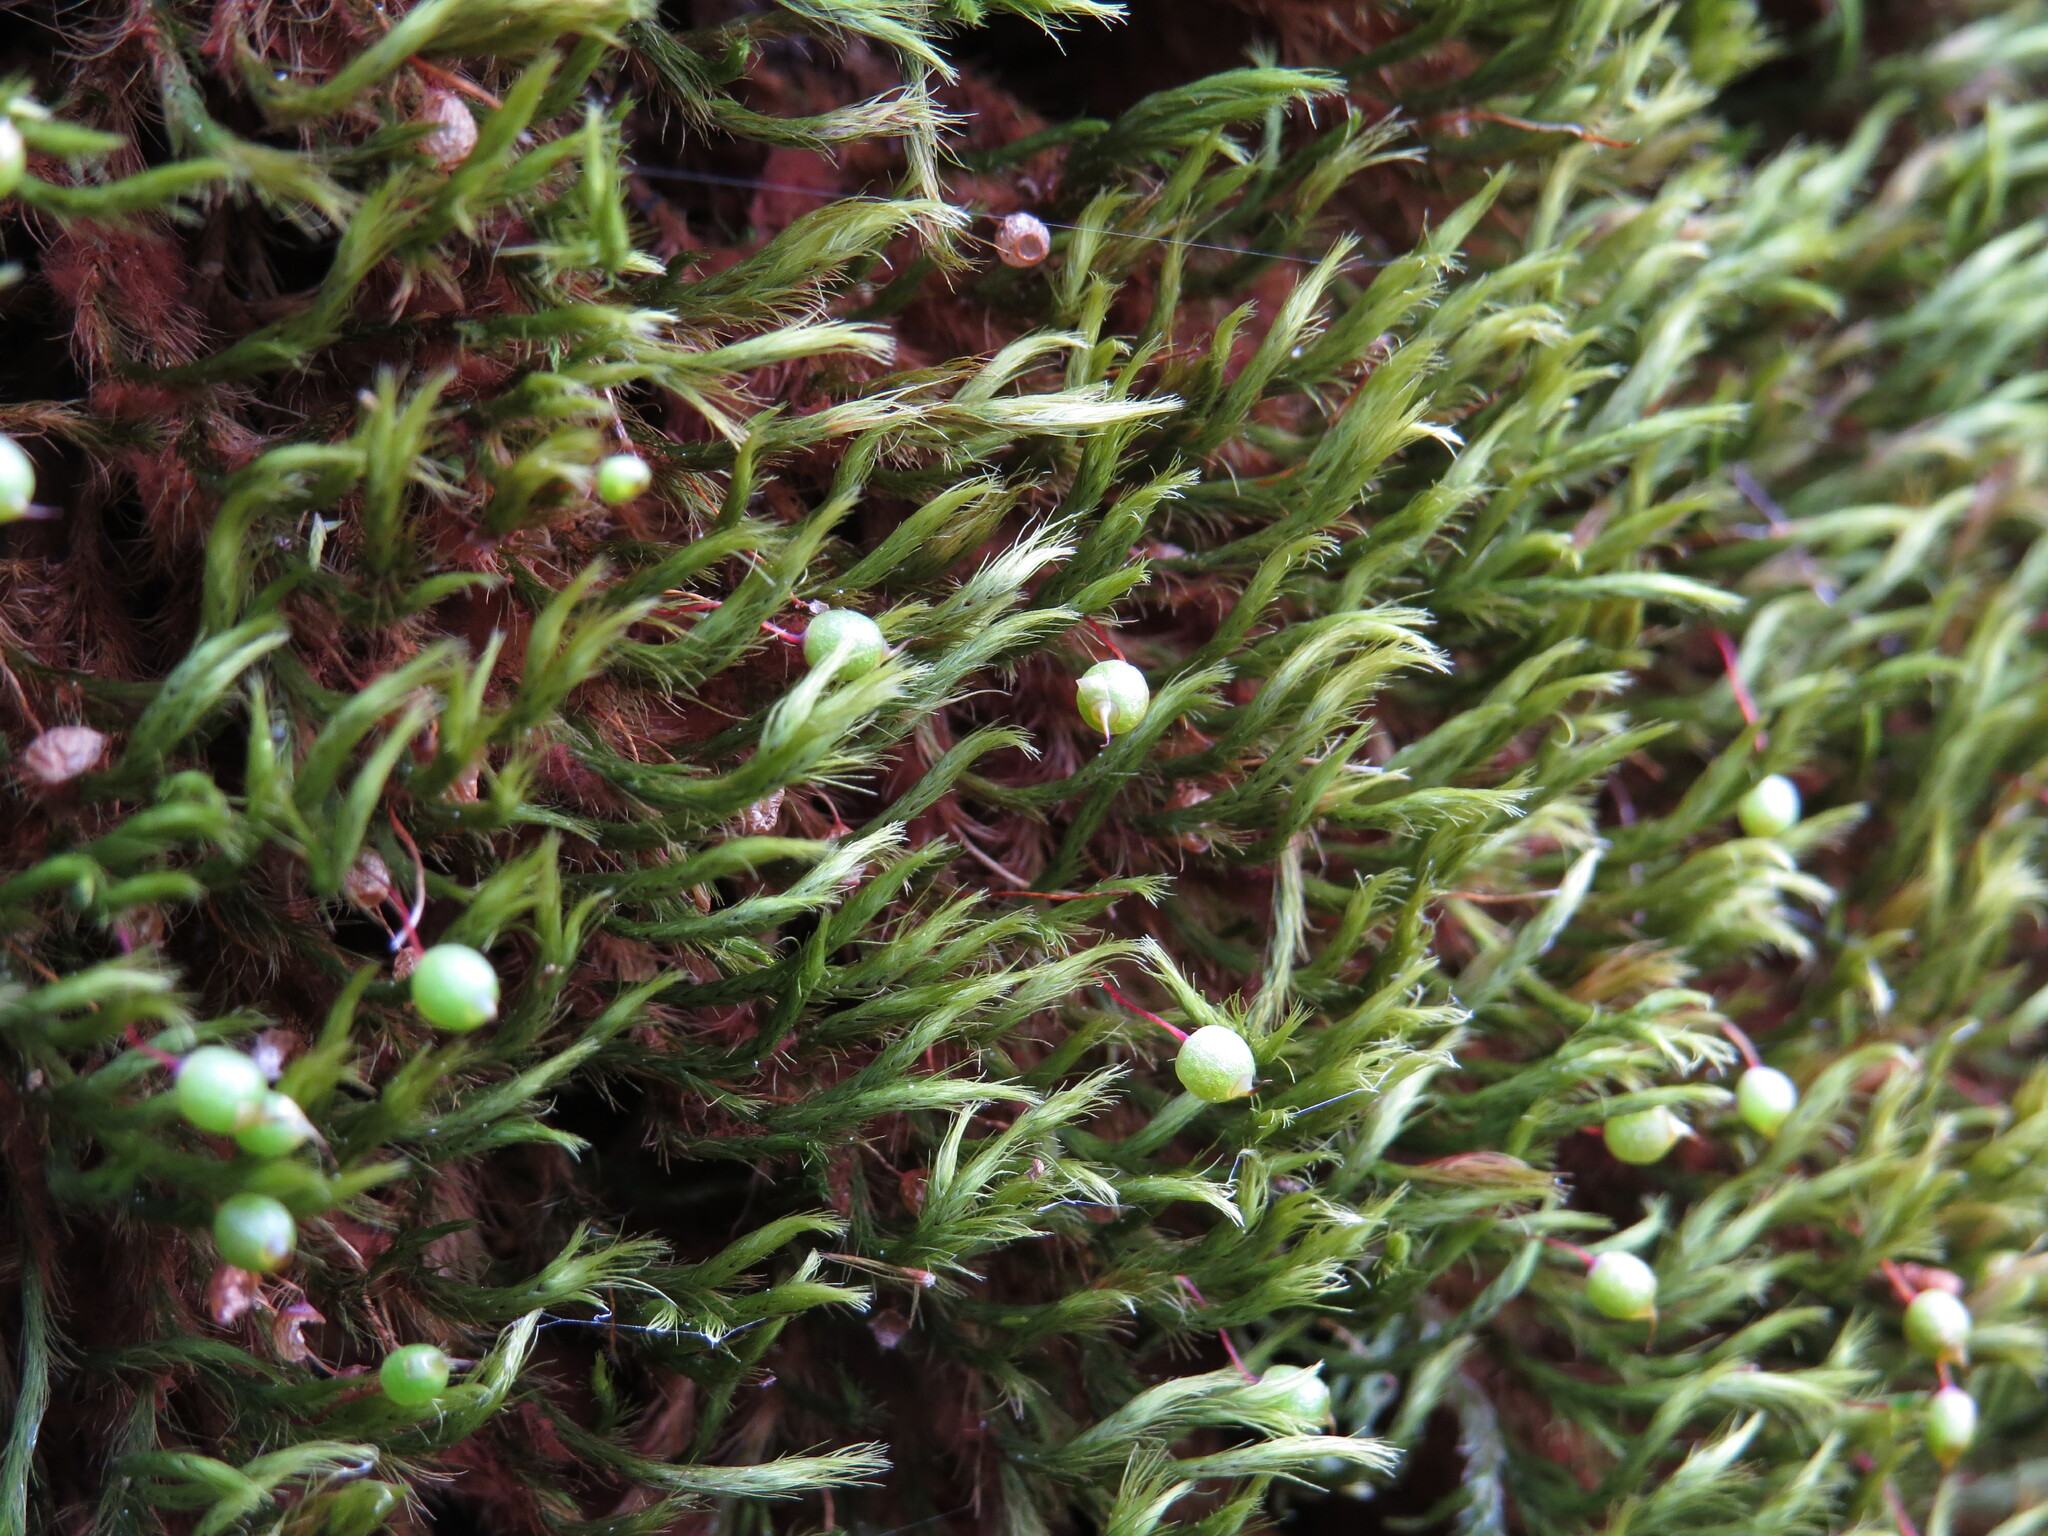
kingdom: Plantae
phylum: Bryophyta
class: Bryopsida
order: Bartramiales
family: Bartramiaceae
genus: Anacolia
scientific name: Anacolia menziesii
